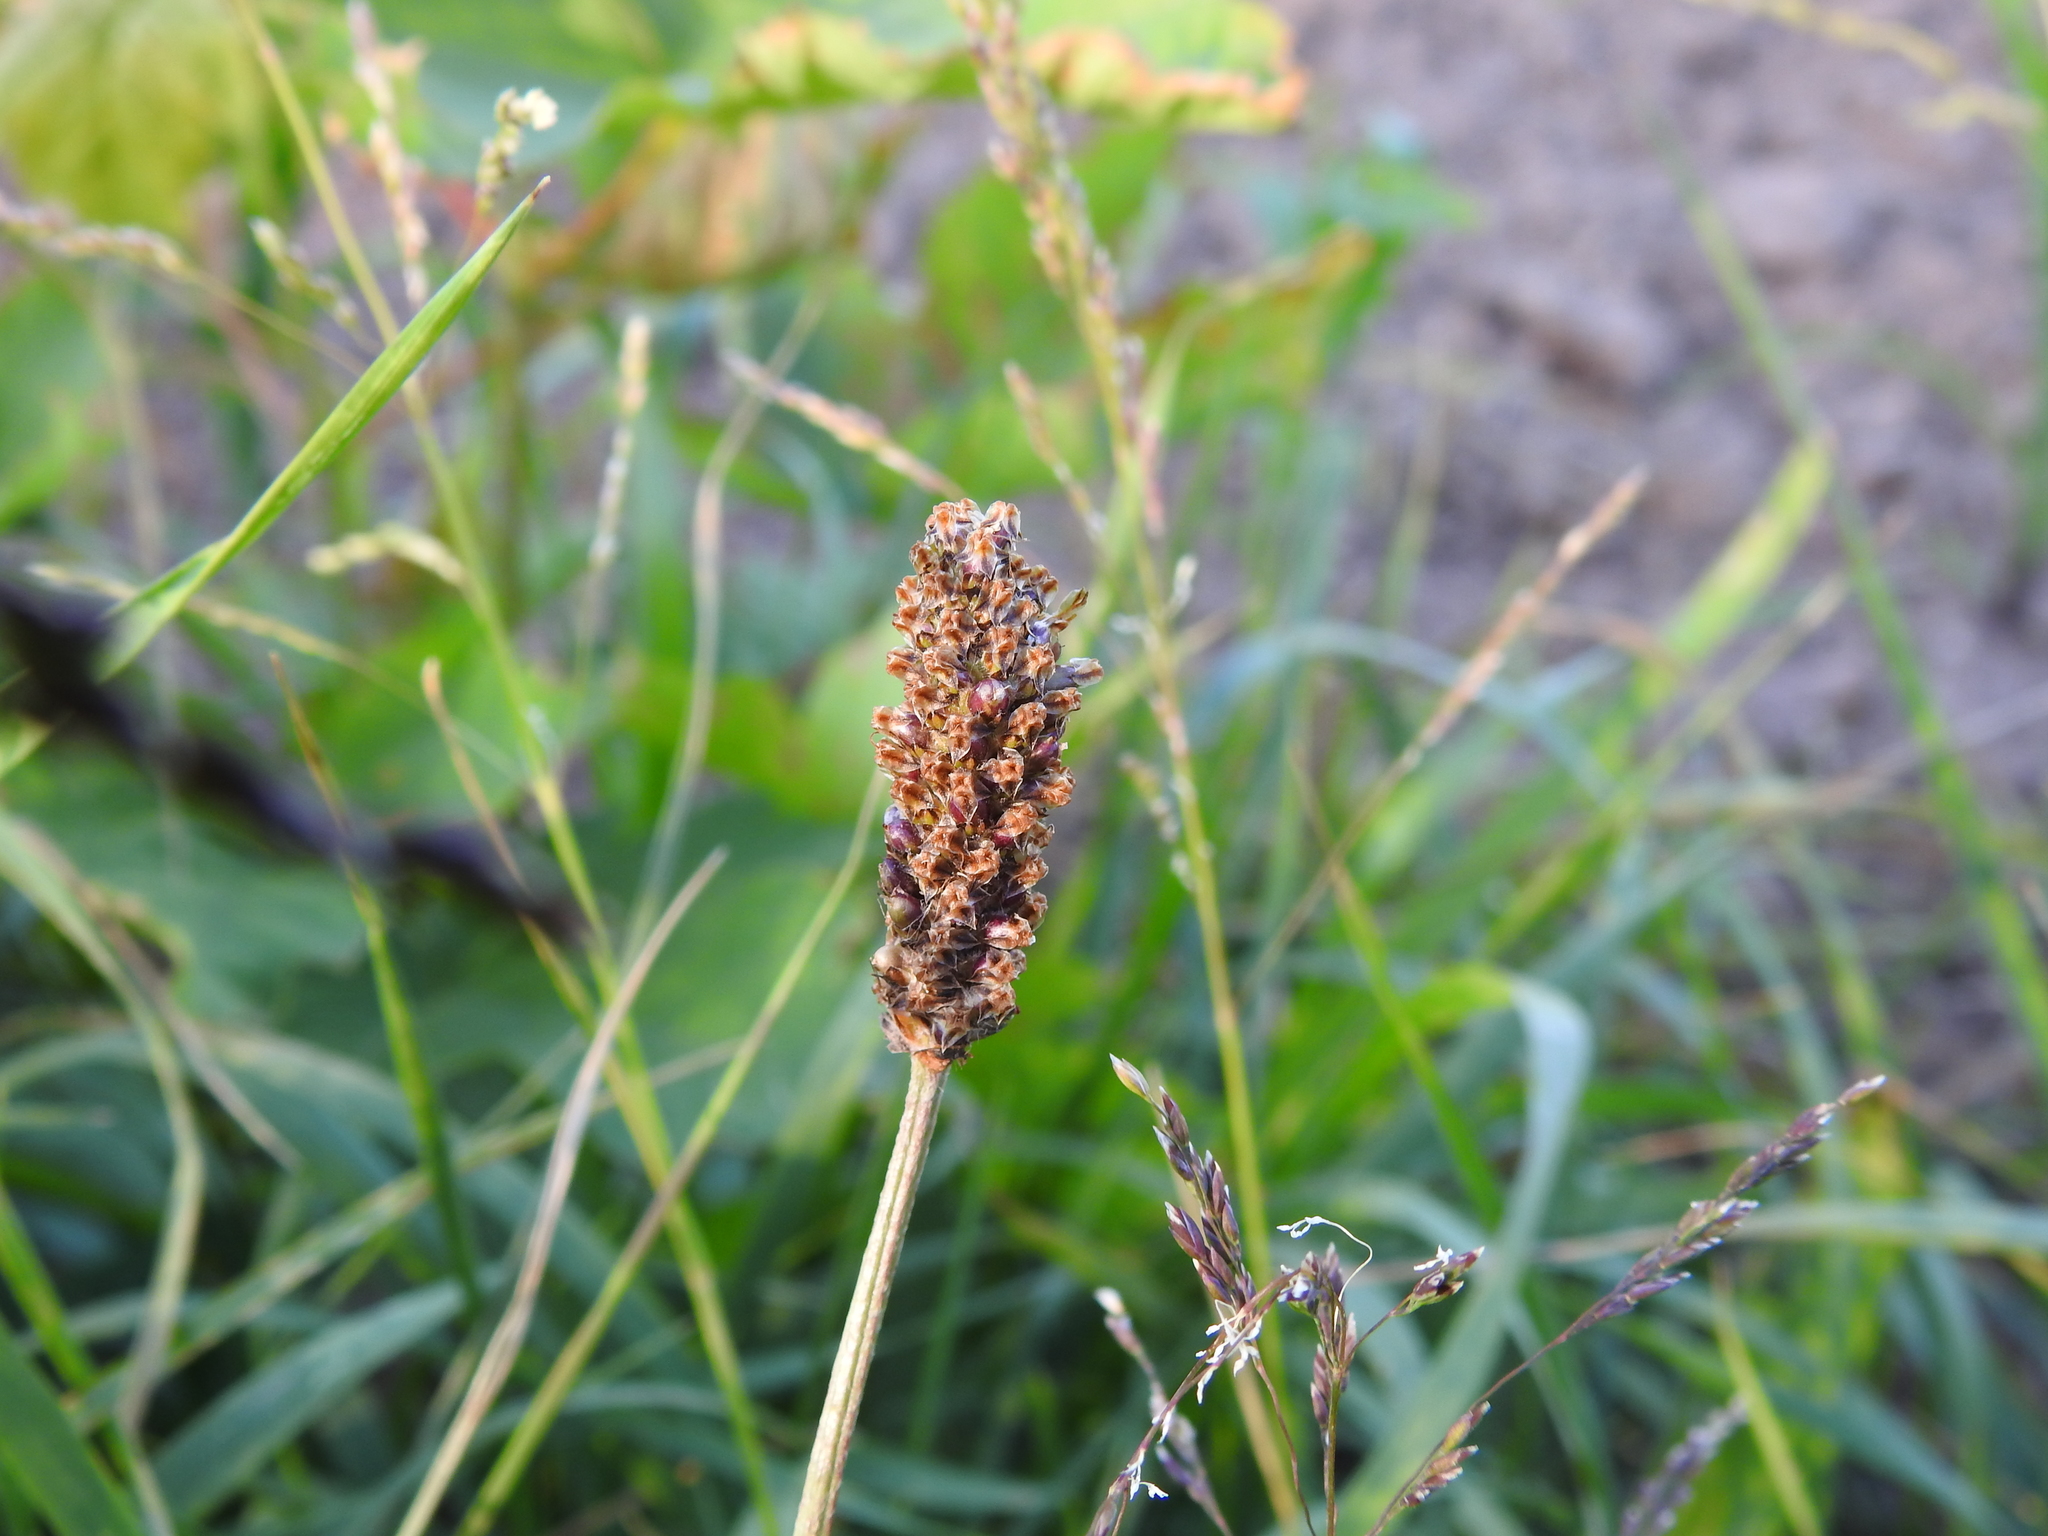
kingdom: Plantae
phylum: Tracheophyta
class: Magnoliopsida
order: Lamiales
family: Plantaginaceae
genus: Plantago
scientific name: Plantago lanceolata
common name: Ribwort plantain
